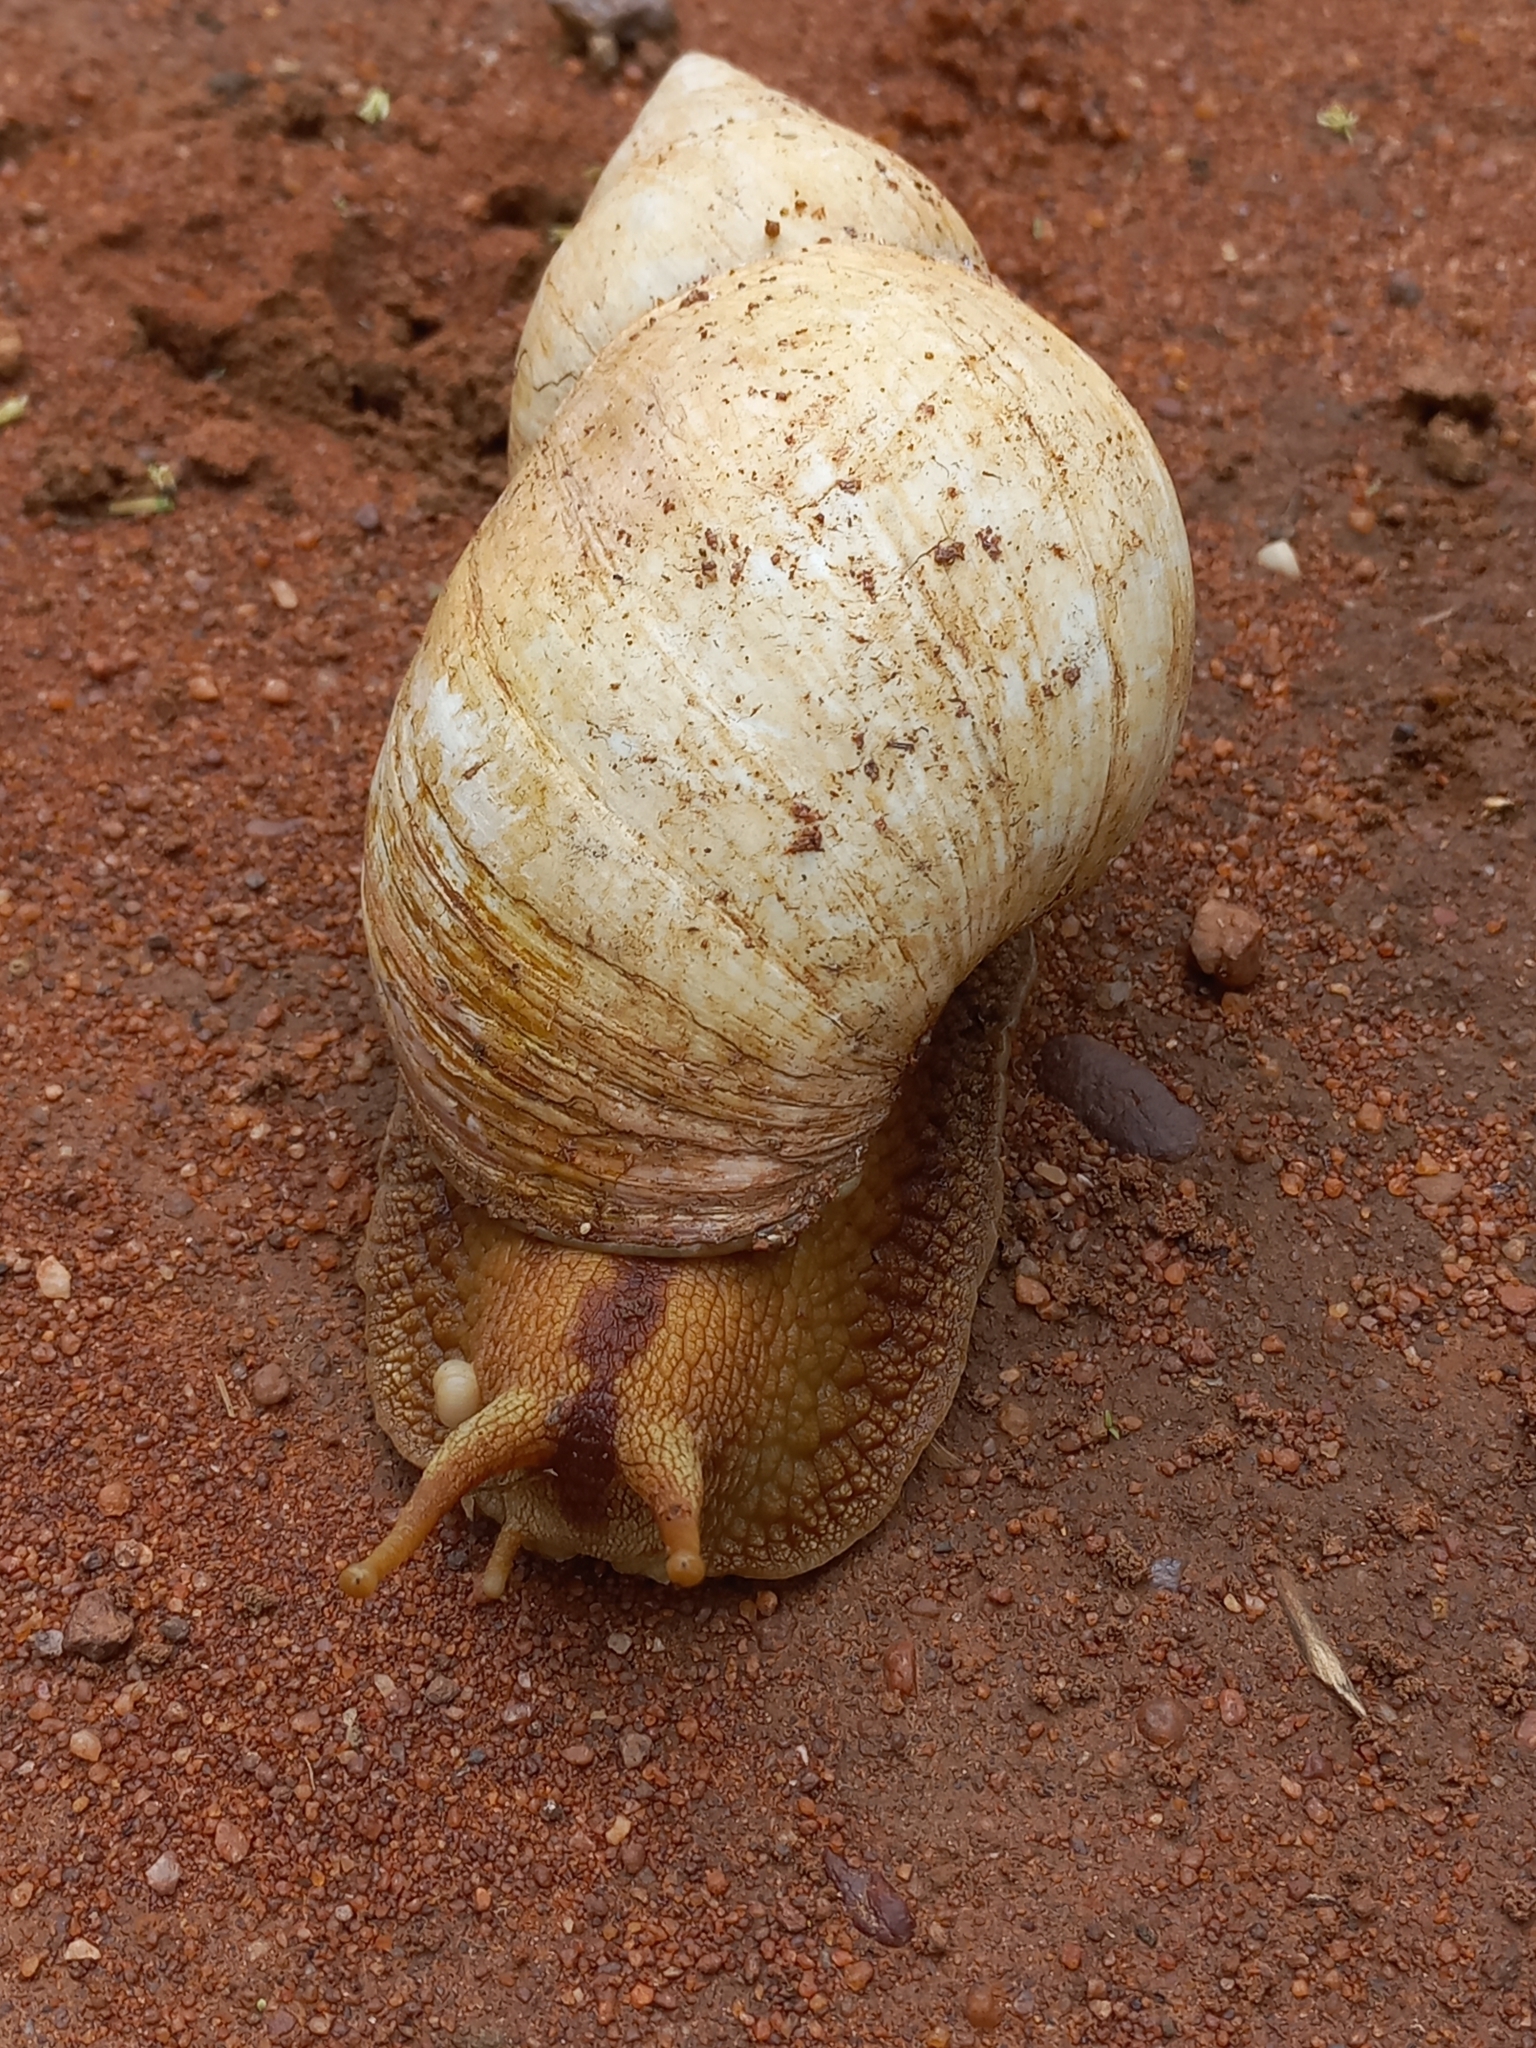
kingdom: Animalia
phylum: Mollusca
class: Gastropoda
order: Stylommatophora
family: Achatinidae
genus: Lissachatina
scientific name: Lissachatina immaculata
